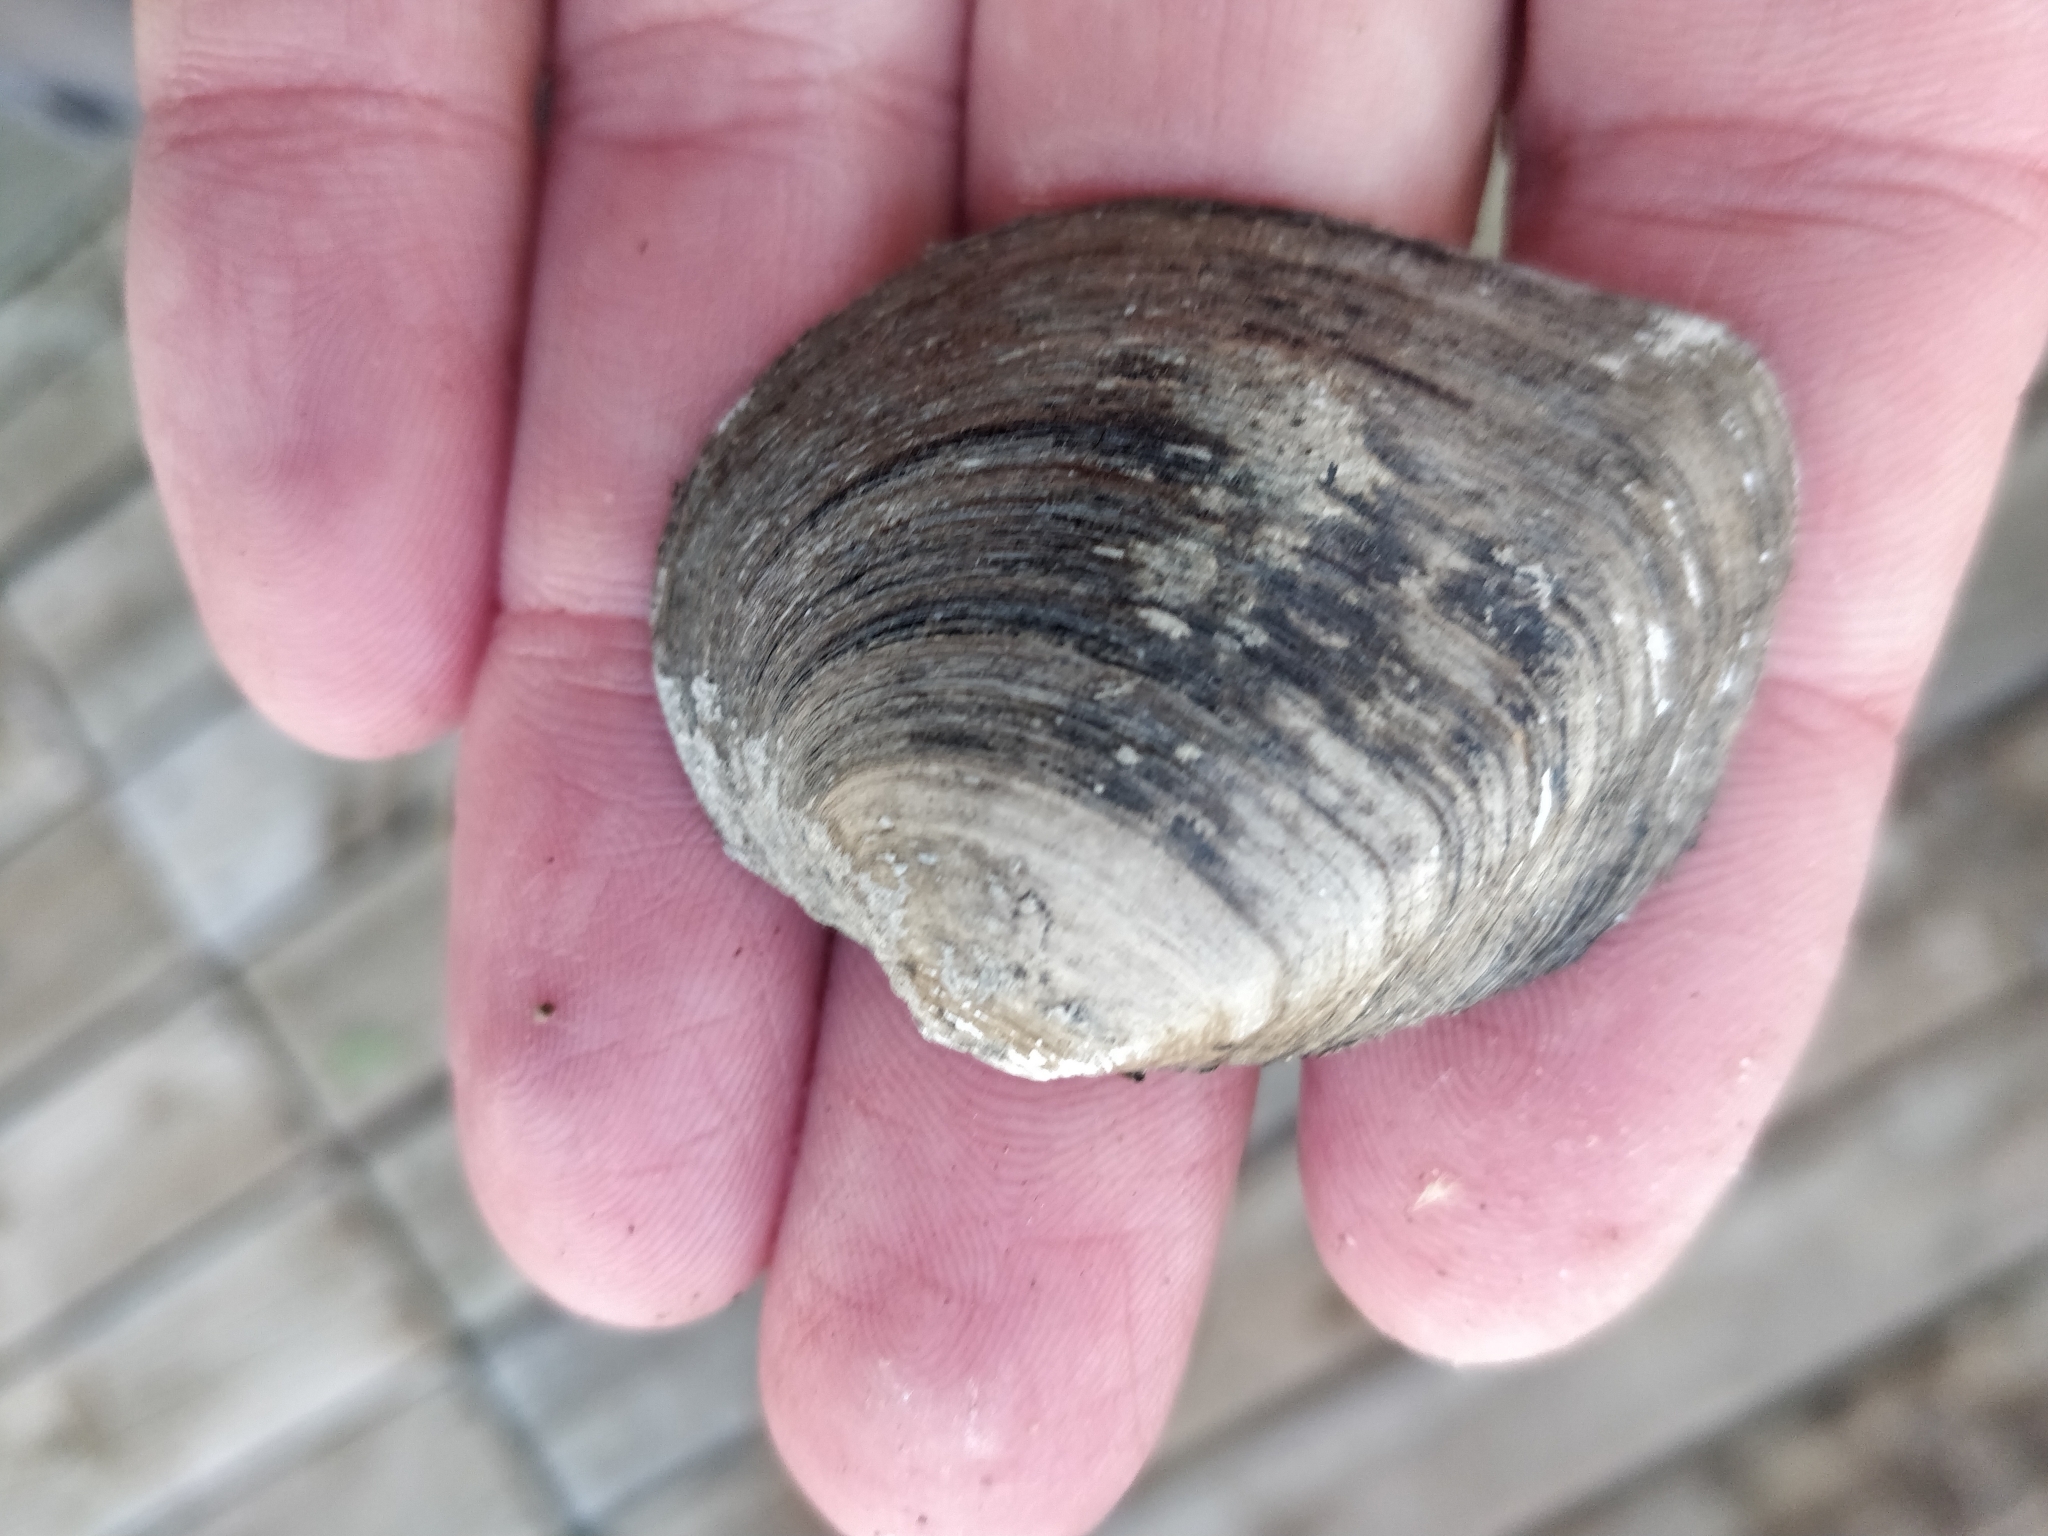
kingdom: Animalia
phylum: Mollusca
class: Bivalvia
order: Unionida
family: Unionidae
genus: Fusconaia
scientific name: Fusconaia flava
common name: Wabash pigtoe
